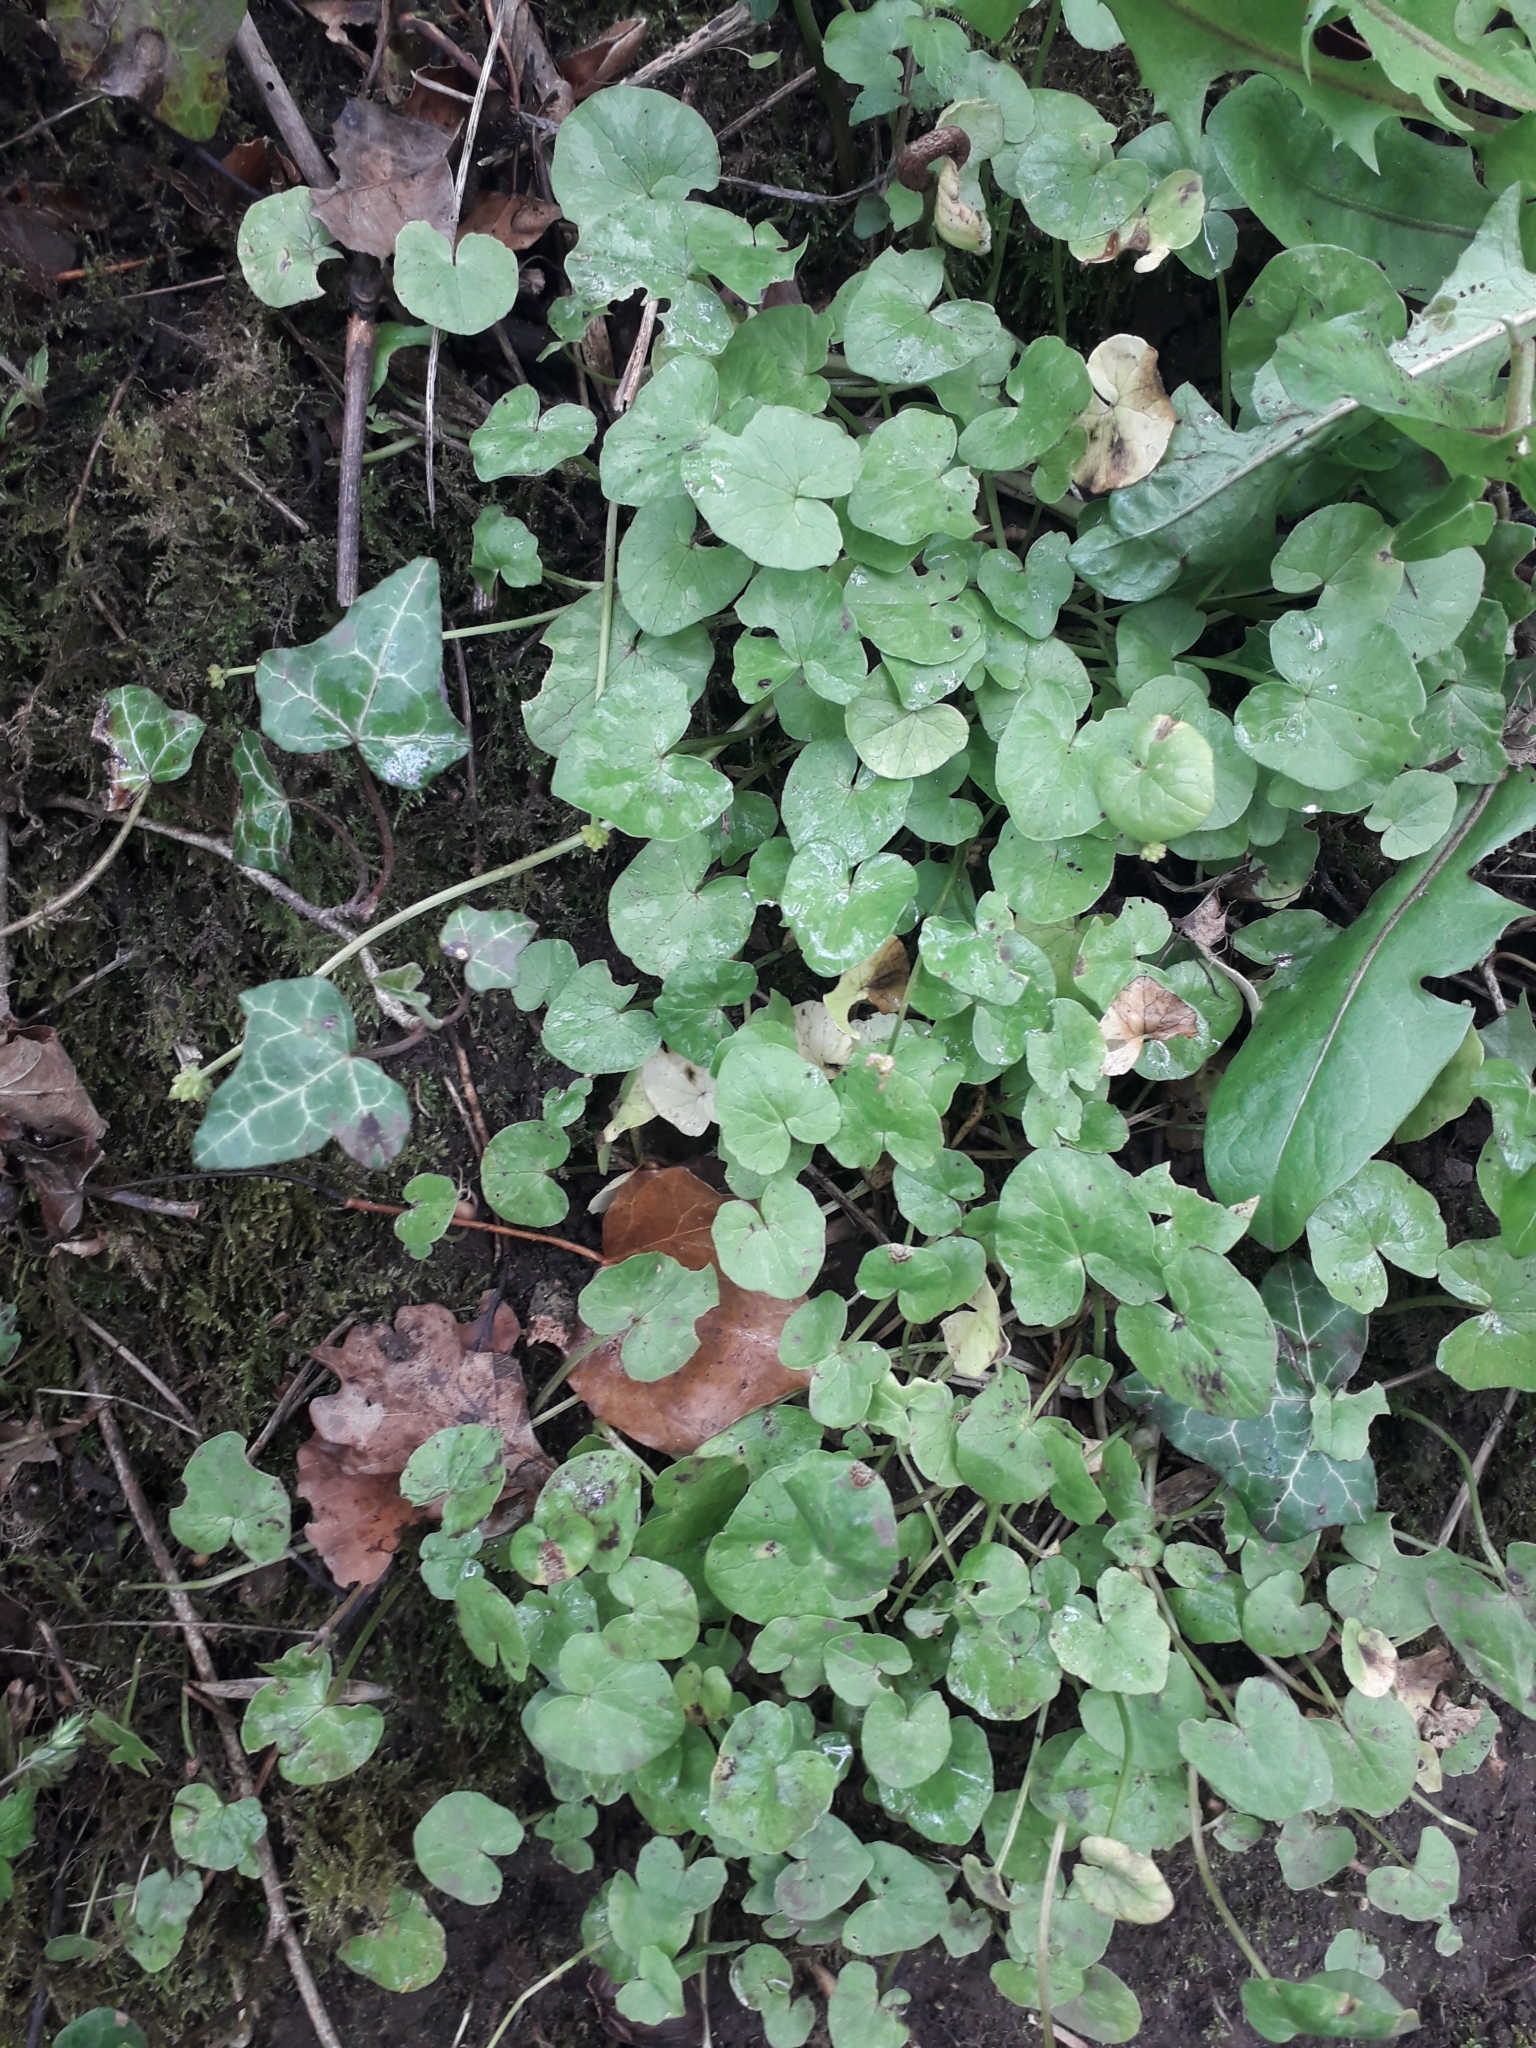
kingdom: Plantae
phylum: Tracheophyta
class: Magnoliopsida
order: Ranunculales
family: Ranunculaceae
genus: Ficaria
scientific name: Ficaria verna
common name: Lesser celandine
